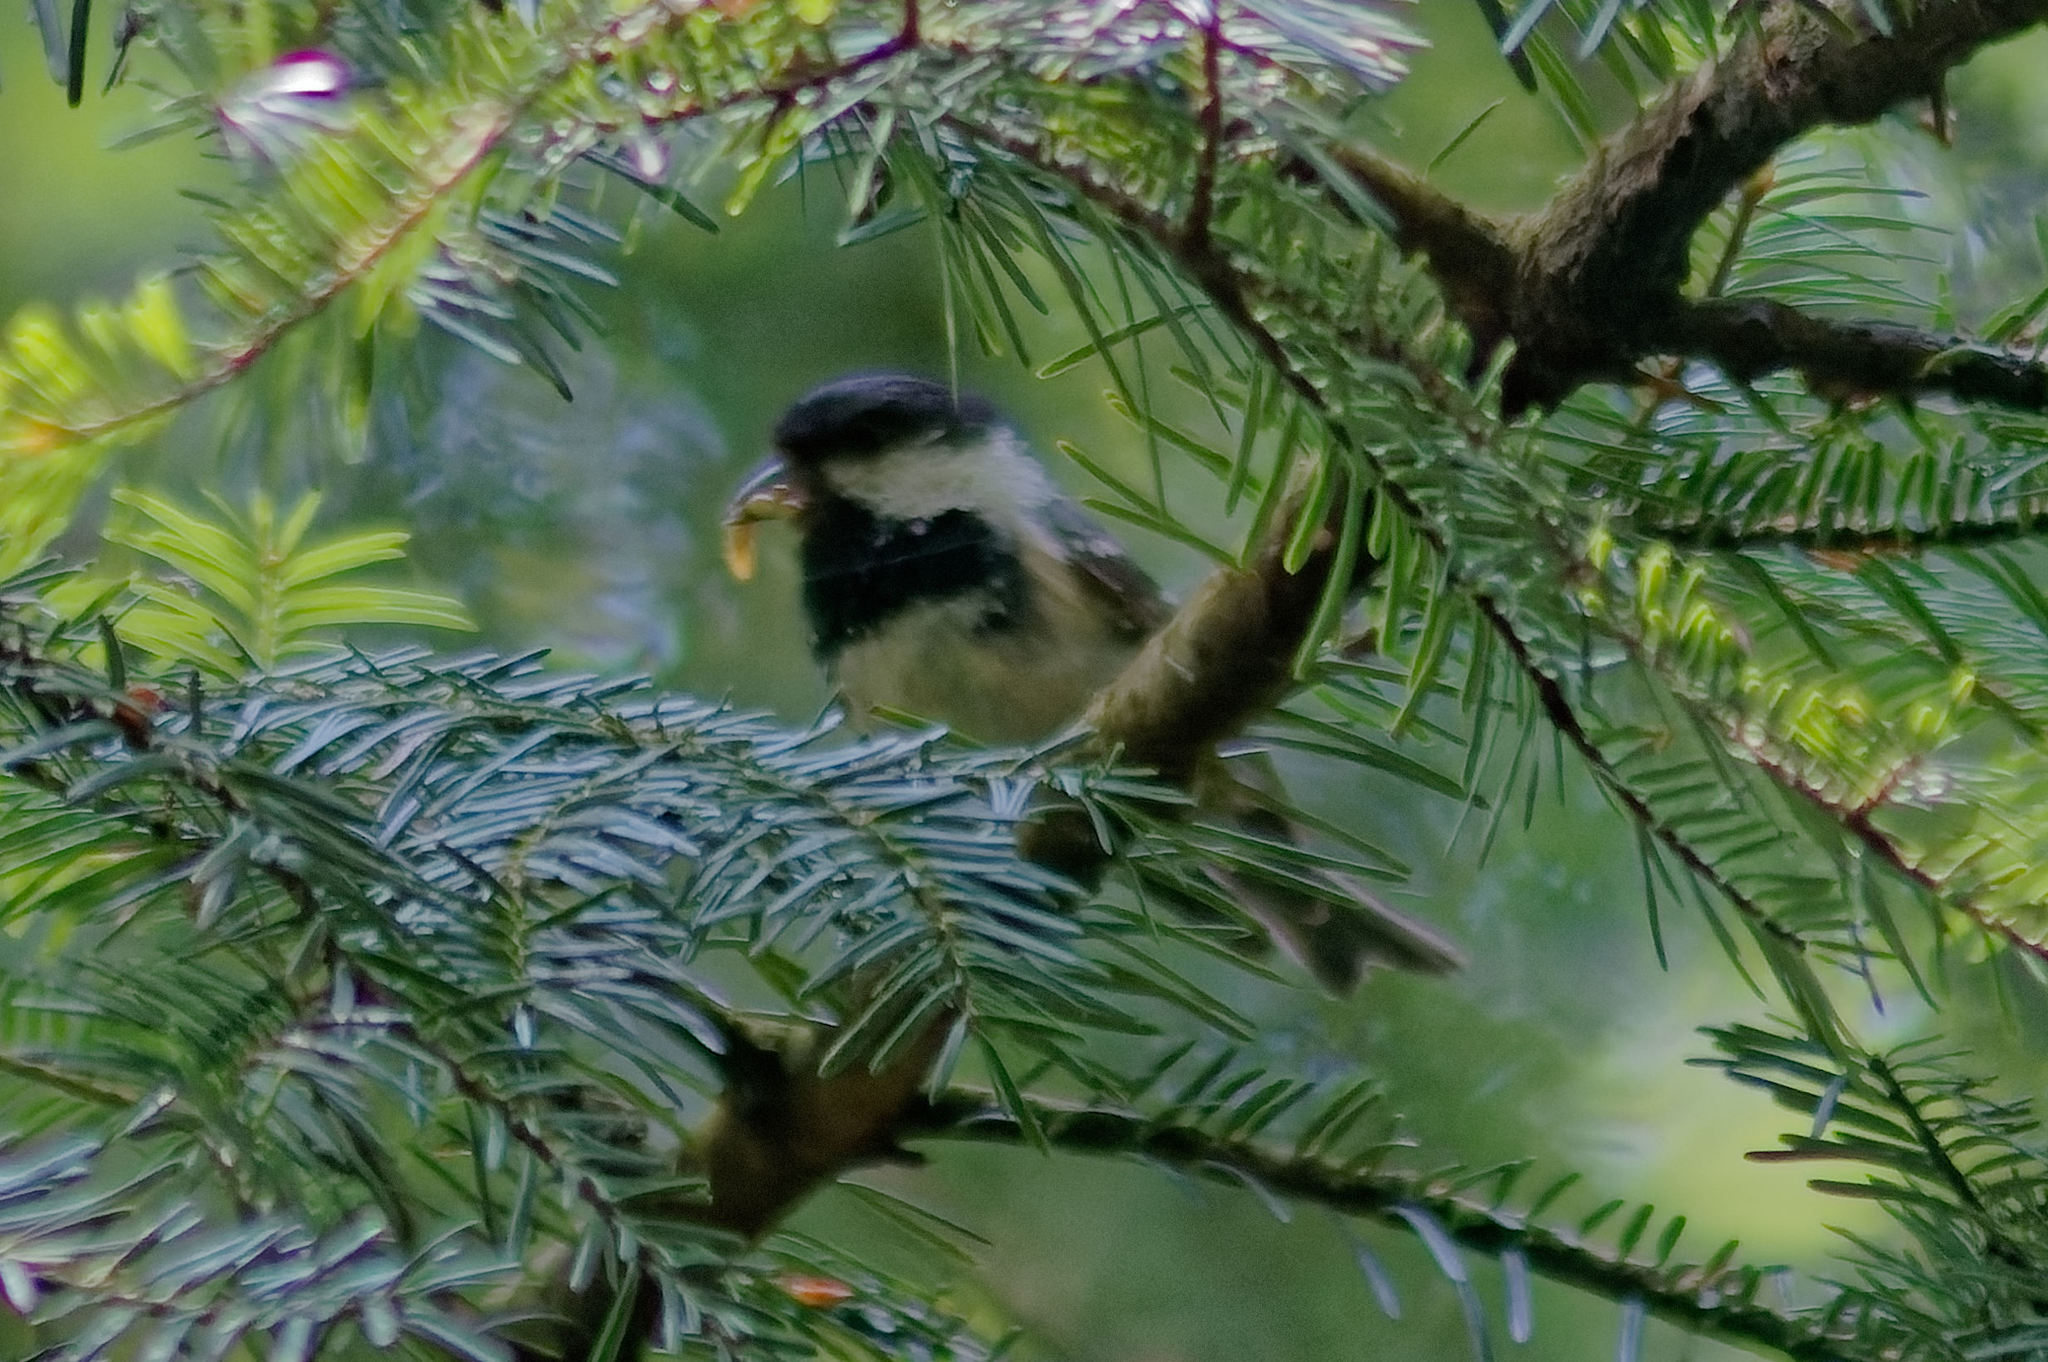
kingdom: Animalia
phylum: Chordata
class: Aves
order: Passeriformes
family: Paridae
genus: Periparus
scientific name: Periparus ater
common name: Coal tit
